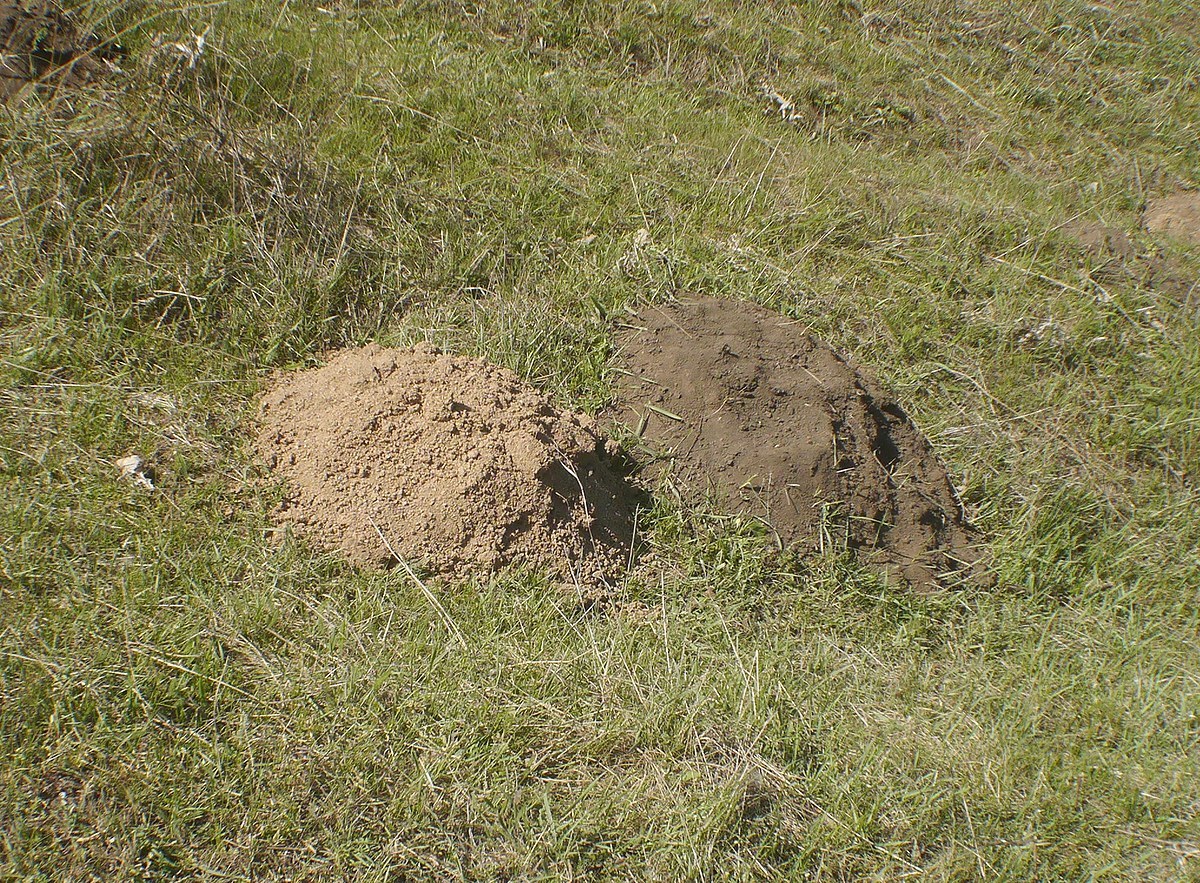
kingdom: Animalia
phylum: Chordata
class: Mammalia
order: Rodentia
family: Spalacidae
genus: Spalax
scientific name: Spalax zemni
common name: Podolsk blind mole rat
